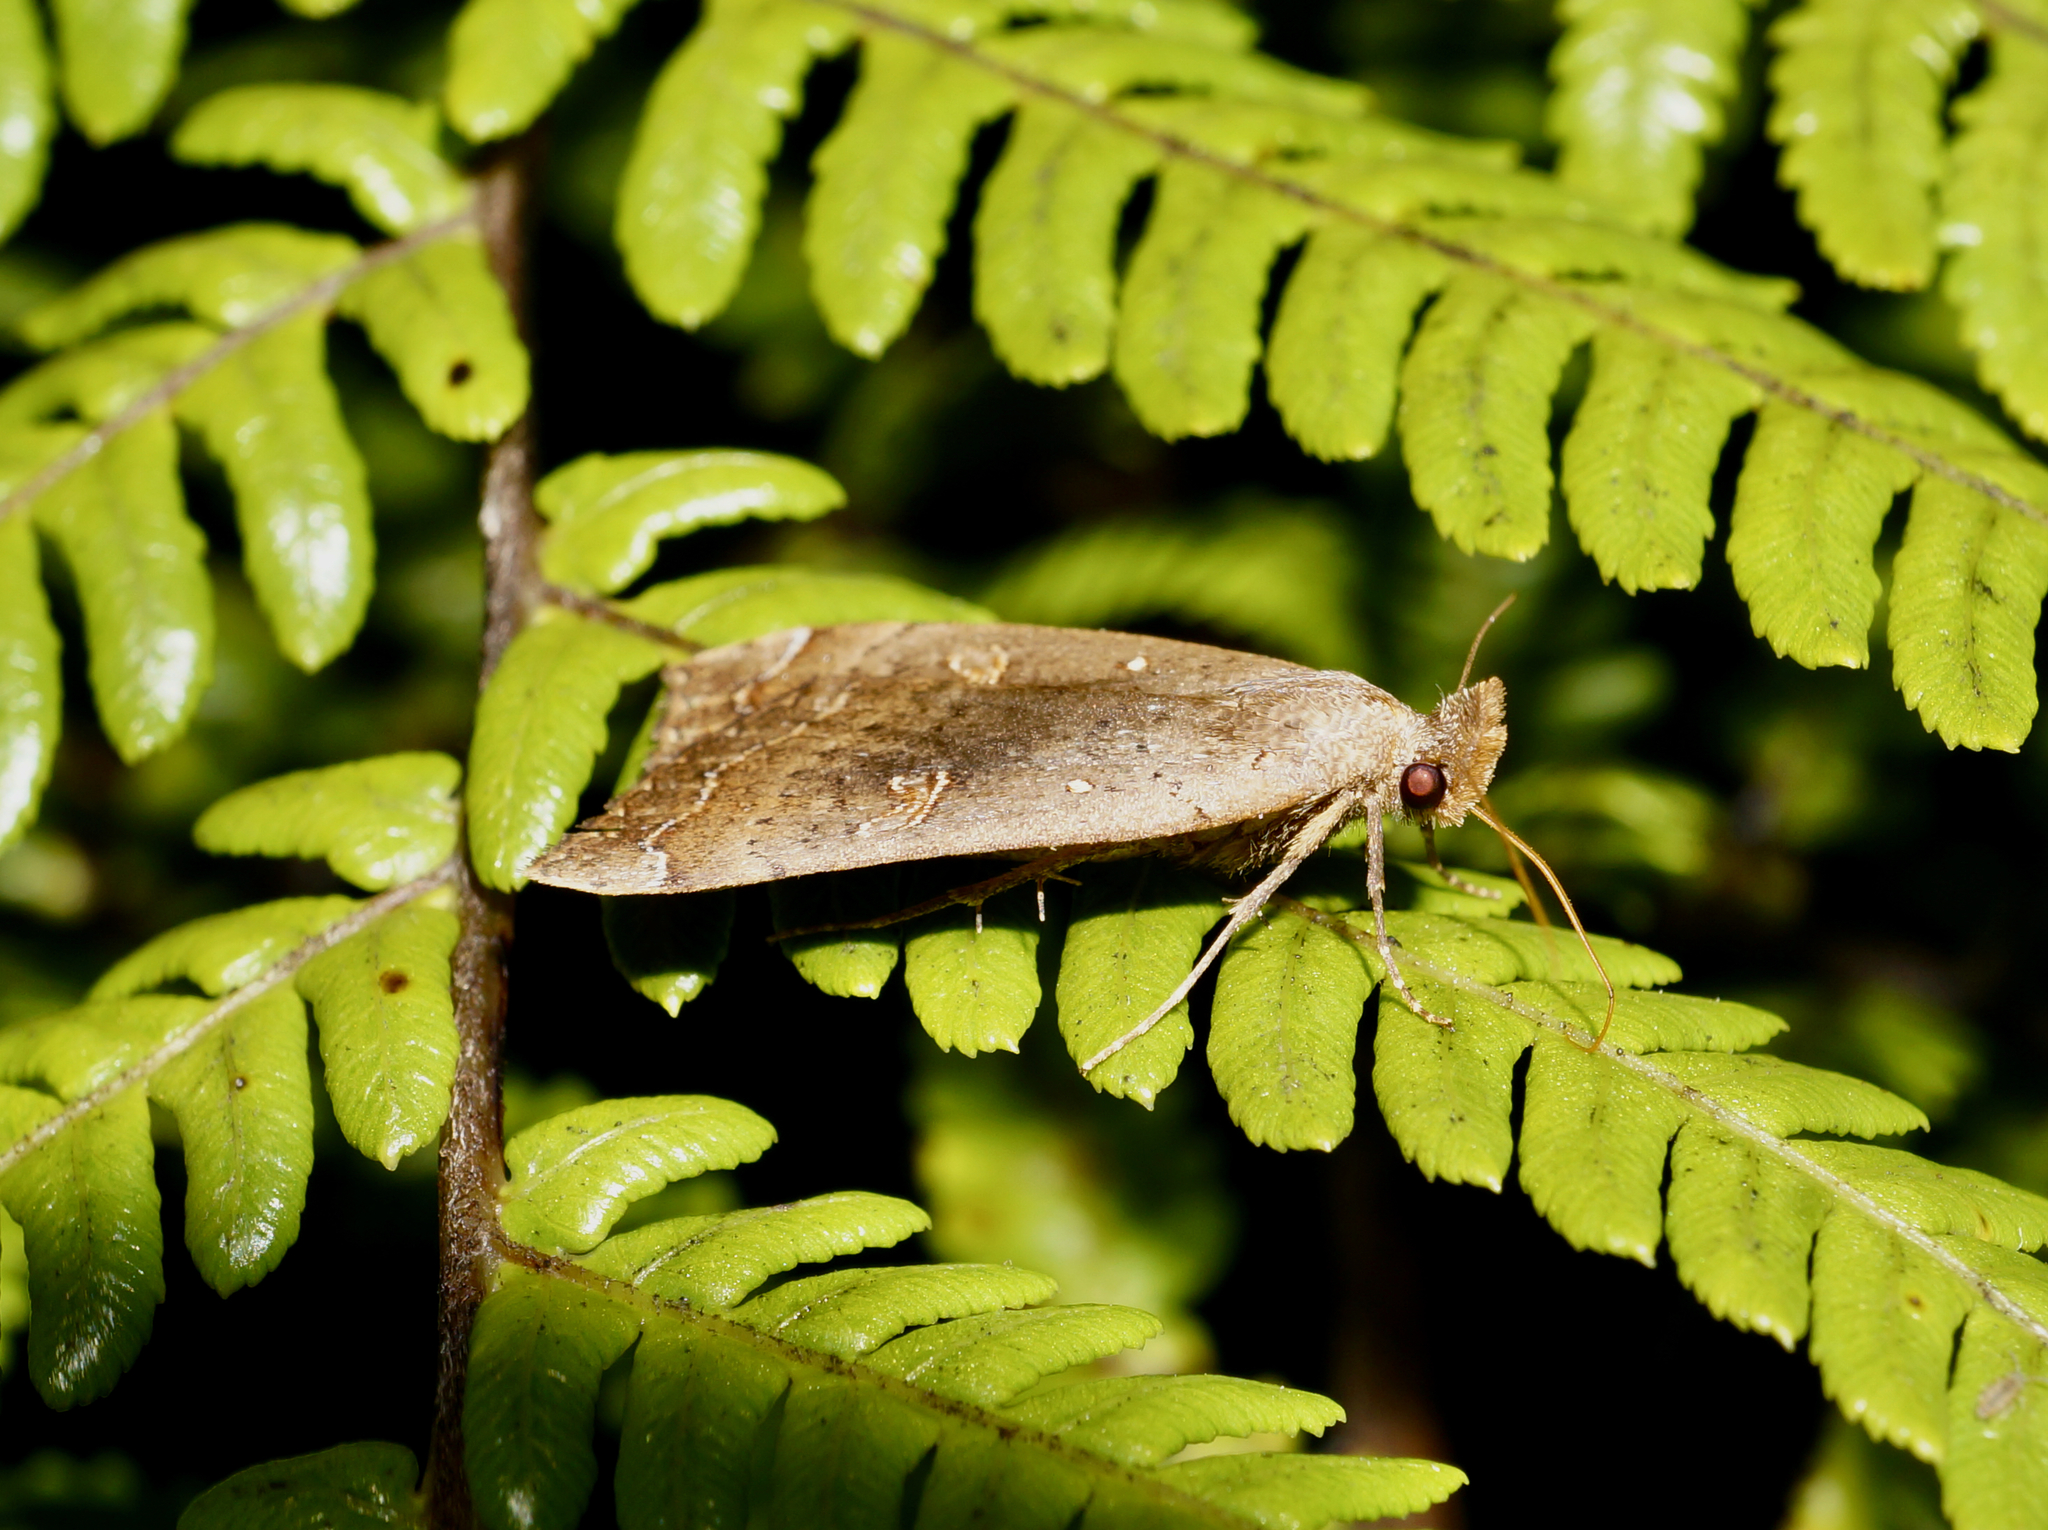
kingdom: Animalia
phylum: Arthropoda
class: Insecta
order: Lepidoptera
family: Erebidae
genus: Rhapsa
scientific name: Rhapsa scotosialis
